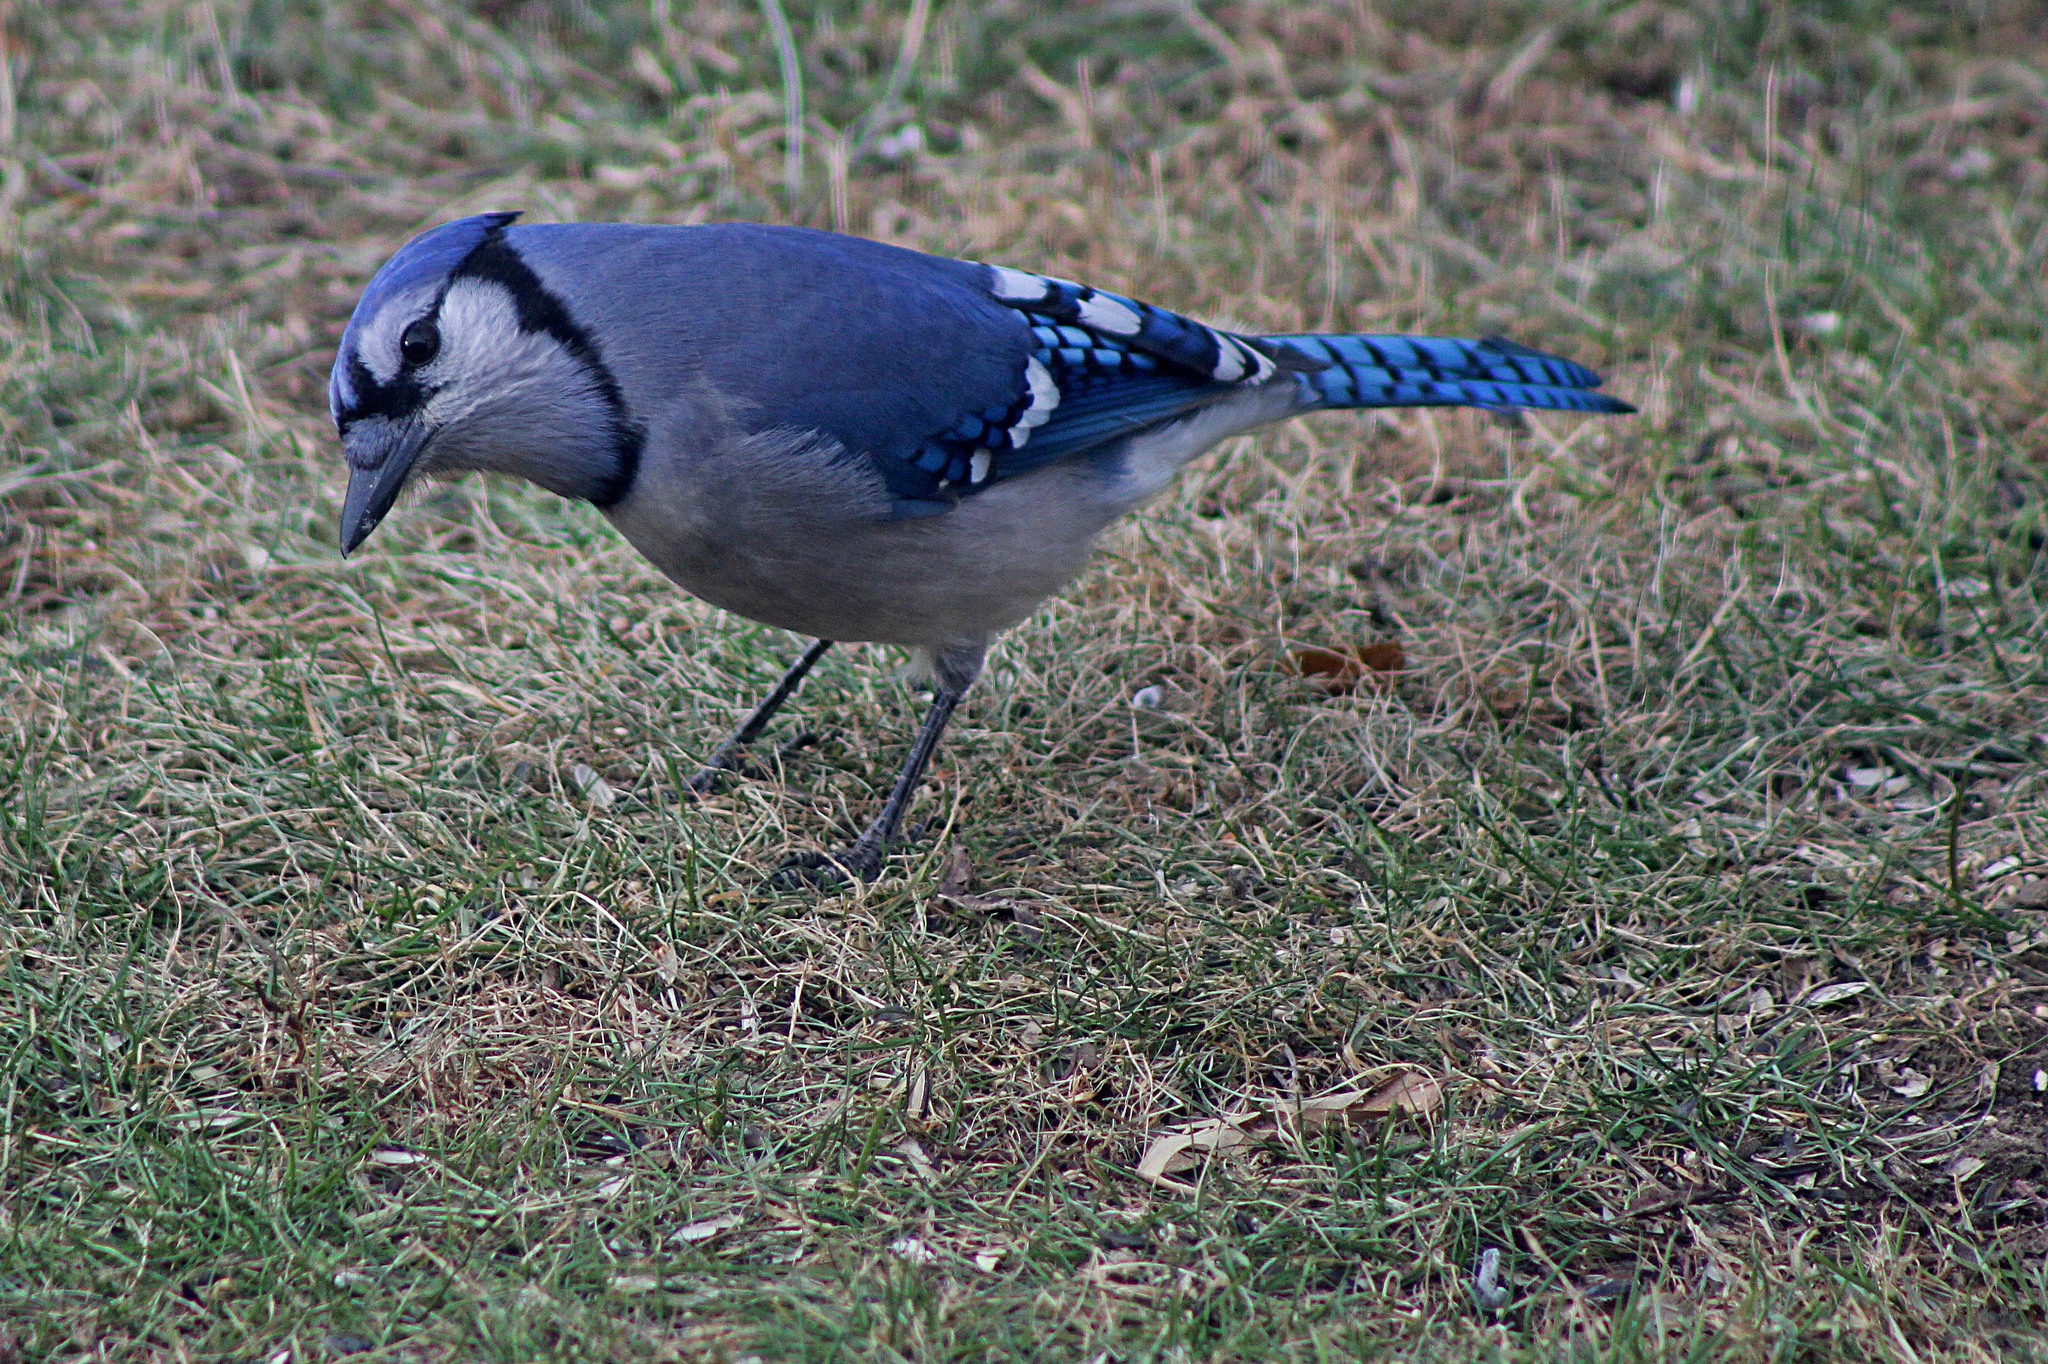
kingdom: Animalia
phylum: Chordata
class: Aves
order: Passeriformes
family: Corvidae
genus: Cyanocitta
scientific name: Cyanocitta cristata
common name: Blue jay
